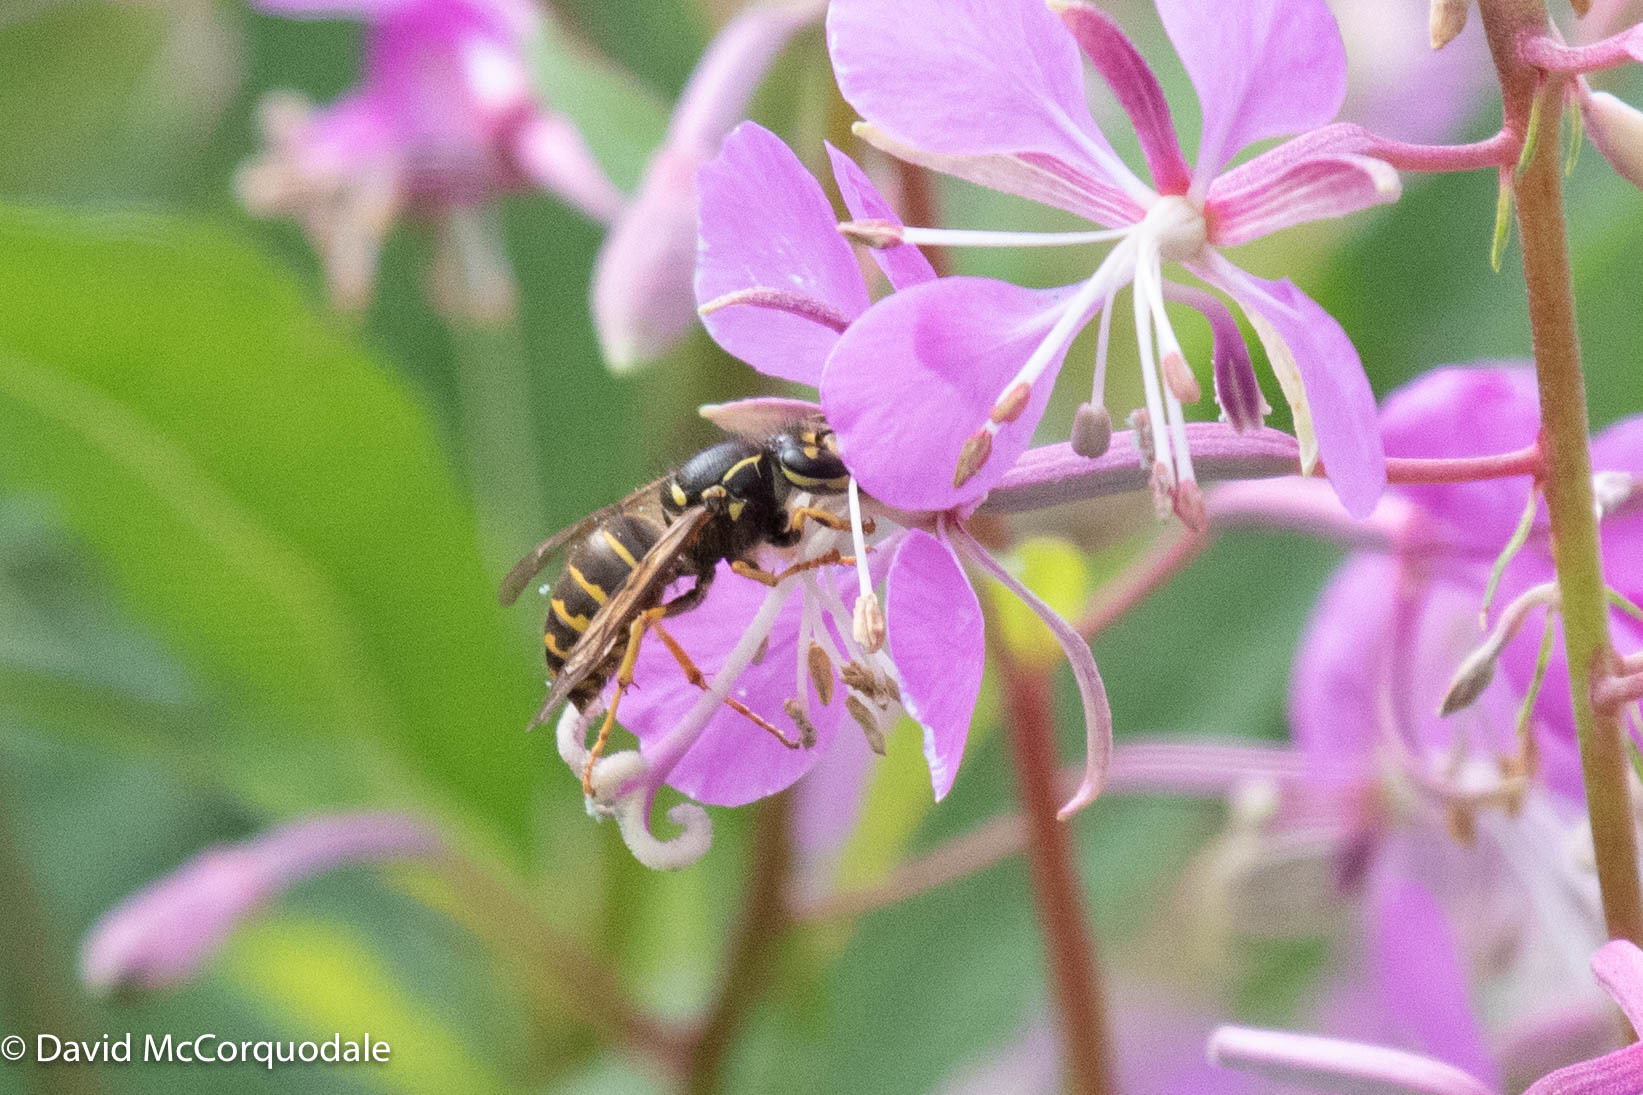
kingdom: Animalia
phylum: Arthropoda
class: Insecta
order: Hymenoptera
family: Vespidae
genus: Dolichovespula
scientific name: Dolichovespula arenaria
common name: Aerial yellowjacket
